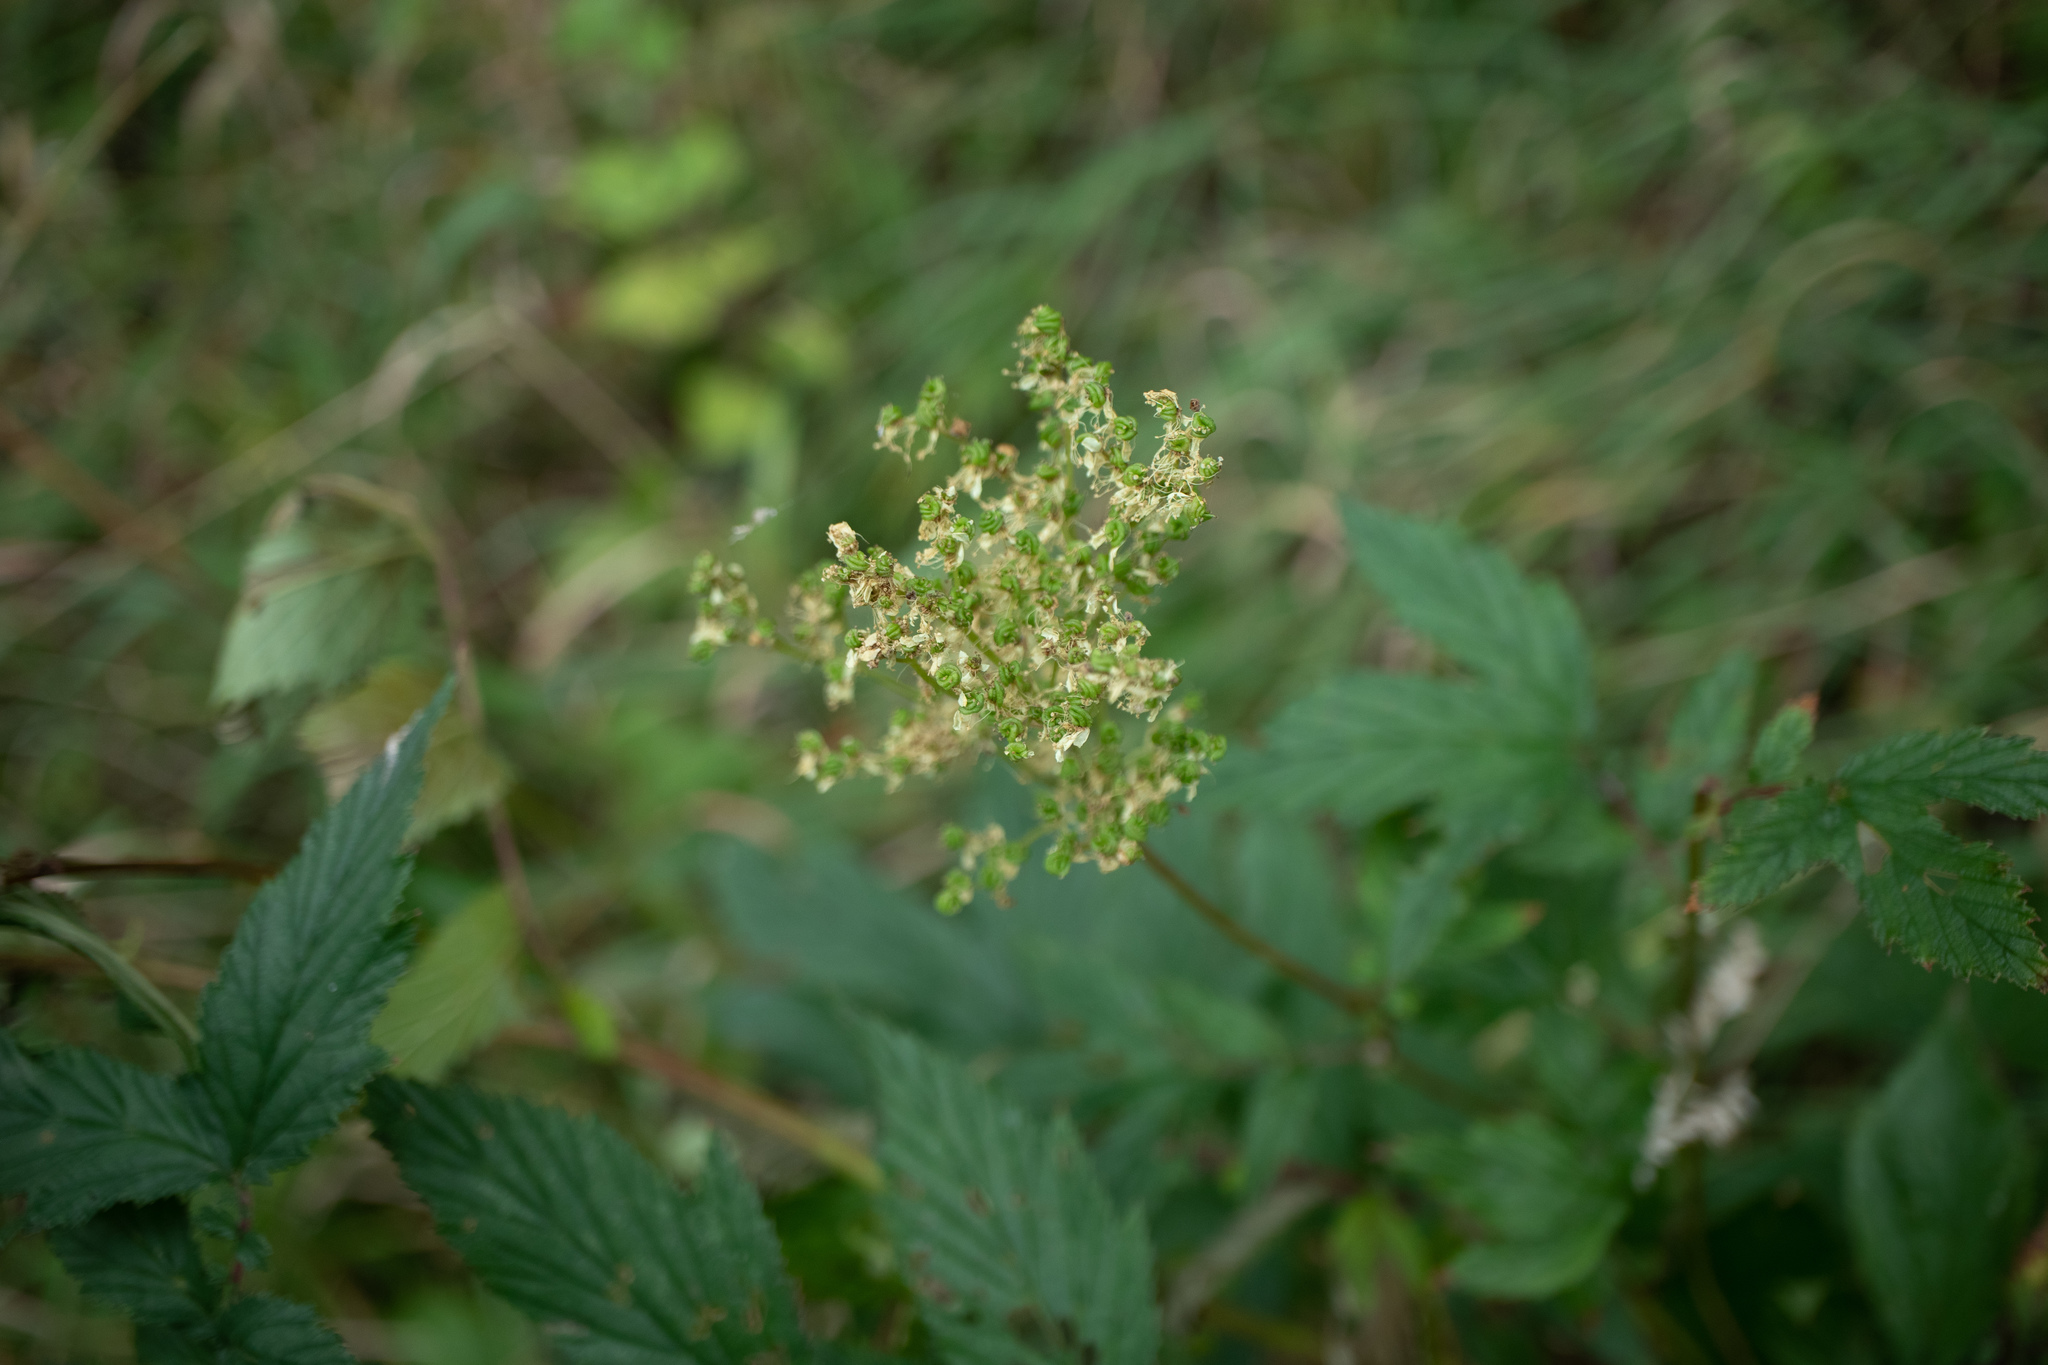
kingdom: Plantae
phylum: Tracheophyta
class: Magnoliopsida
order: Rosales
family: Rosaceae
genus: Filipendula
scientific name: Filipendula ulmaria
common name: Meadowsweet
